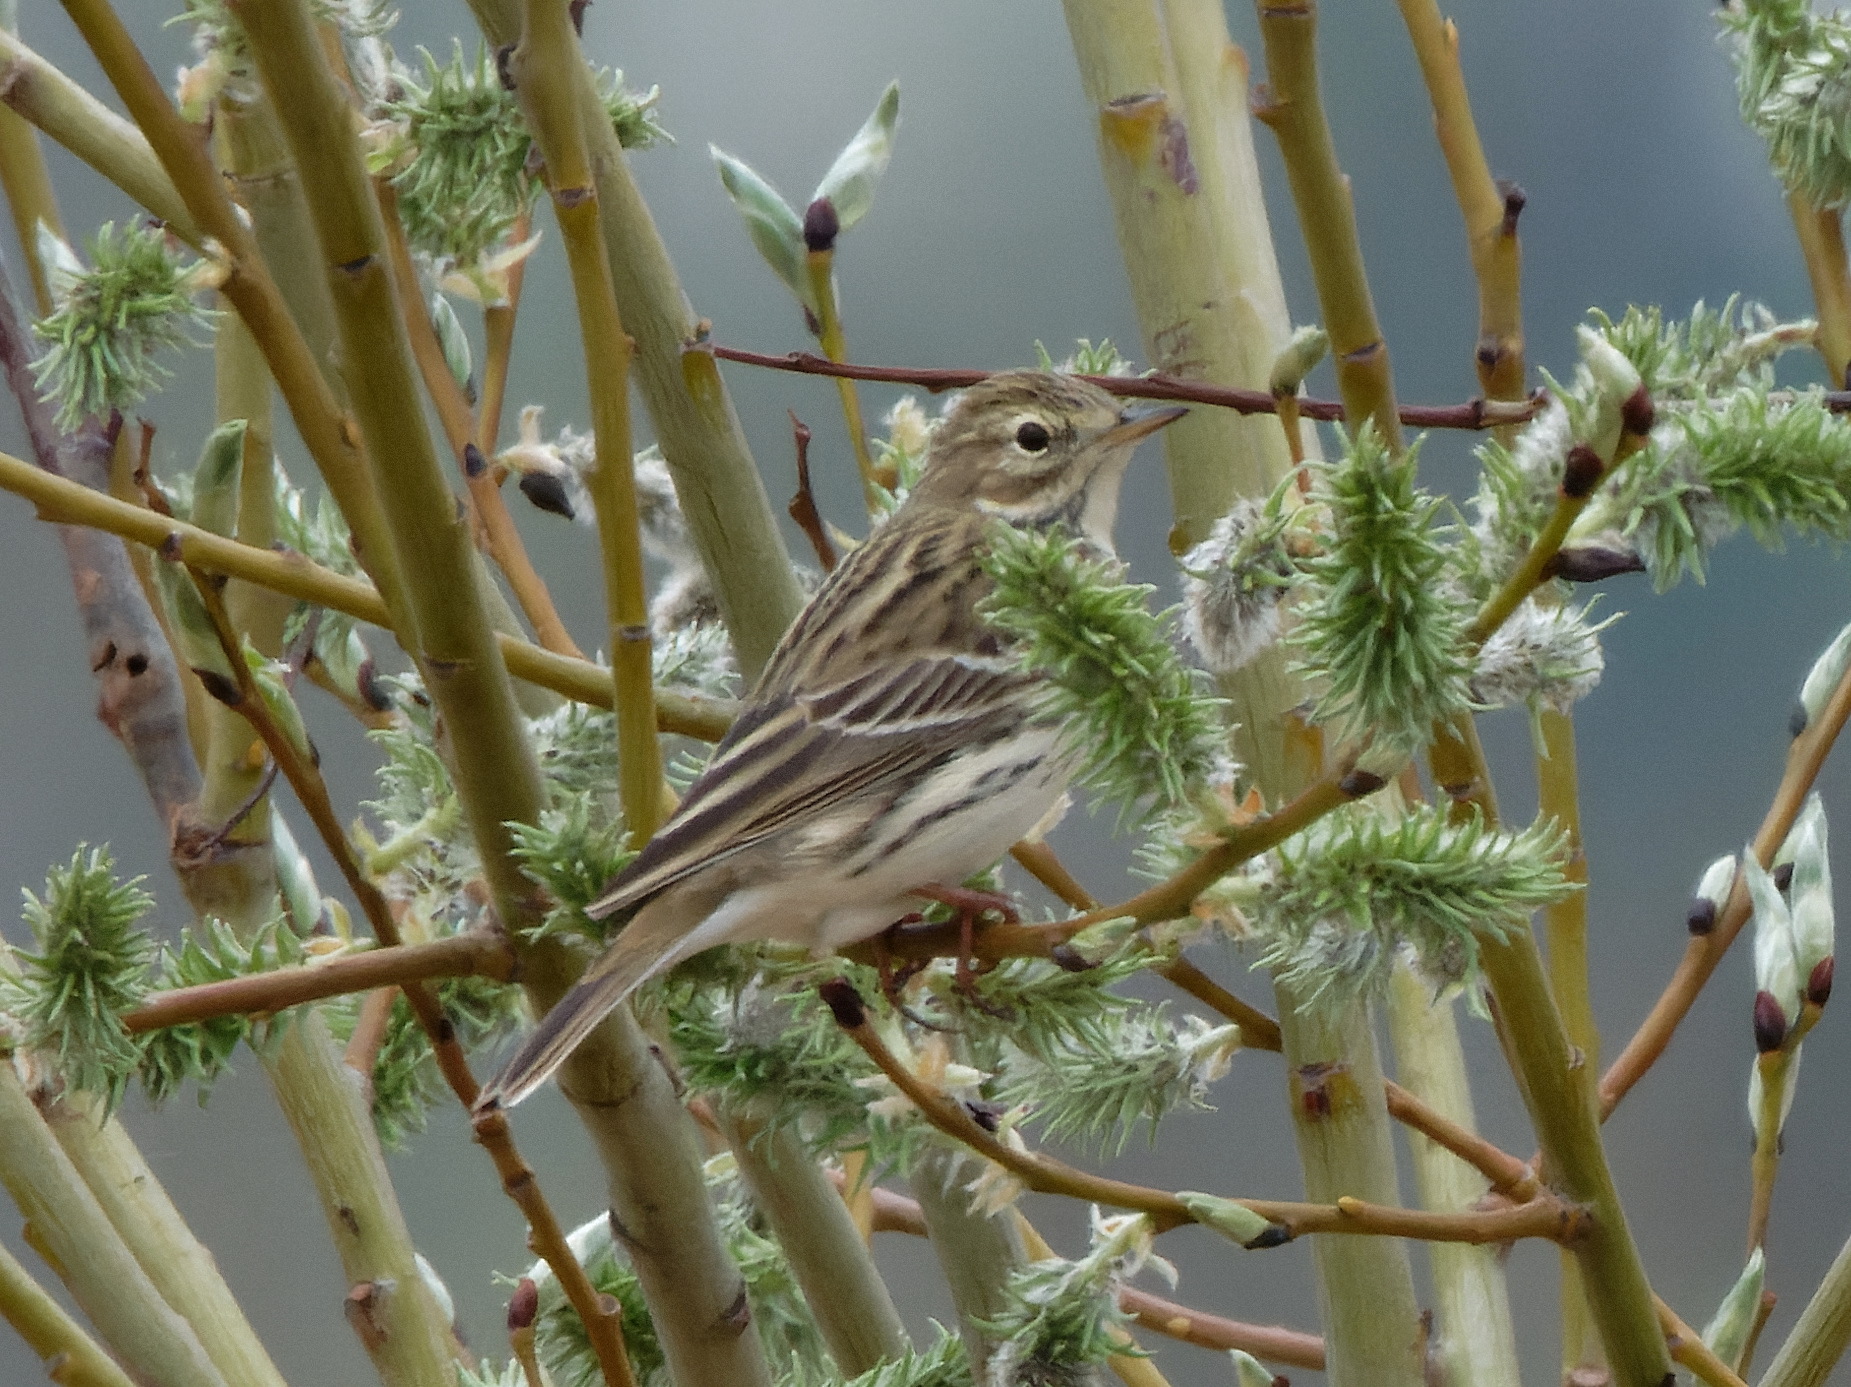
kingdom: Animalia
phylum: Chordata
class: Aves
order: Passeriformes
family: Motacillidae
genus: Anthus
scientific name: Anthus pratensis
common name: Meadow pipit
